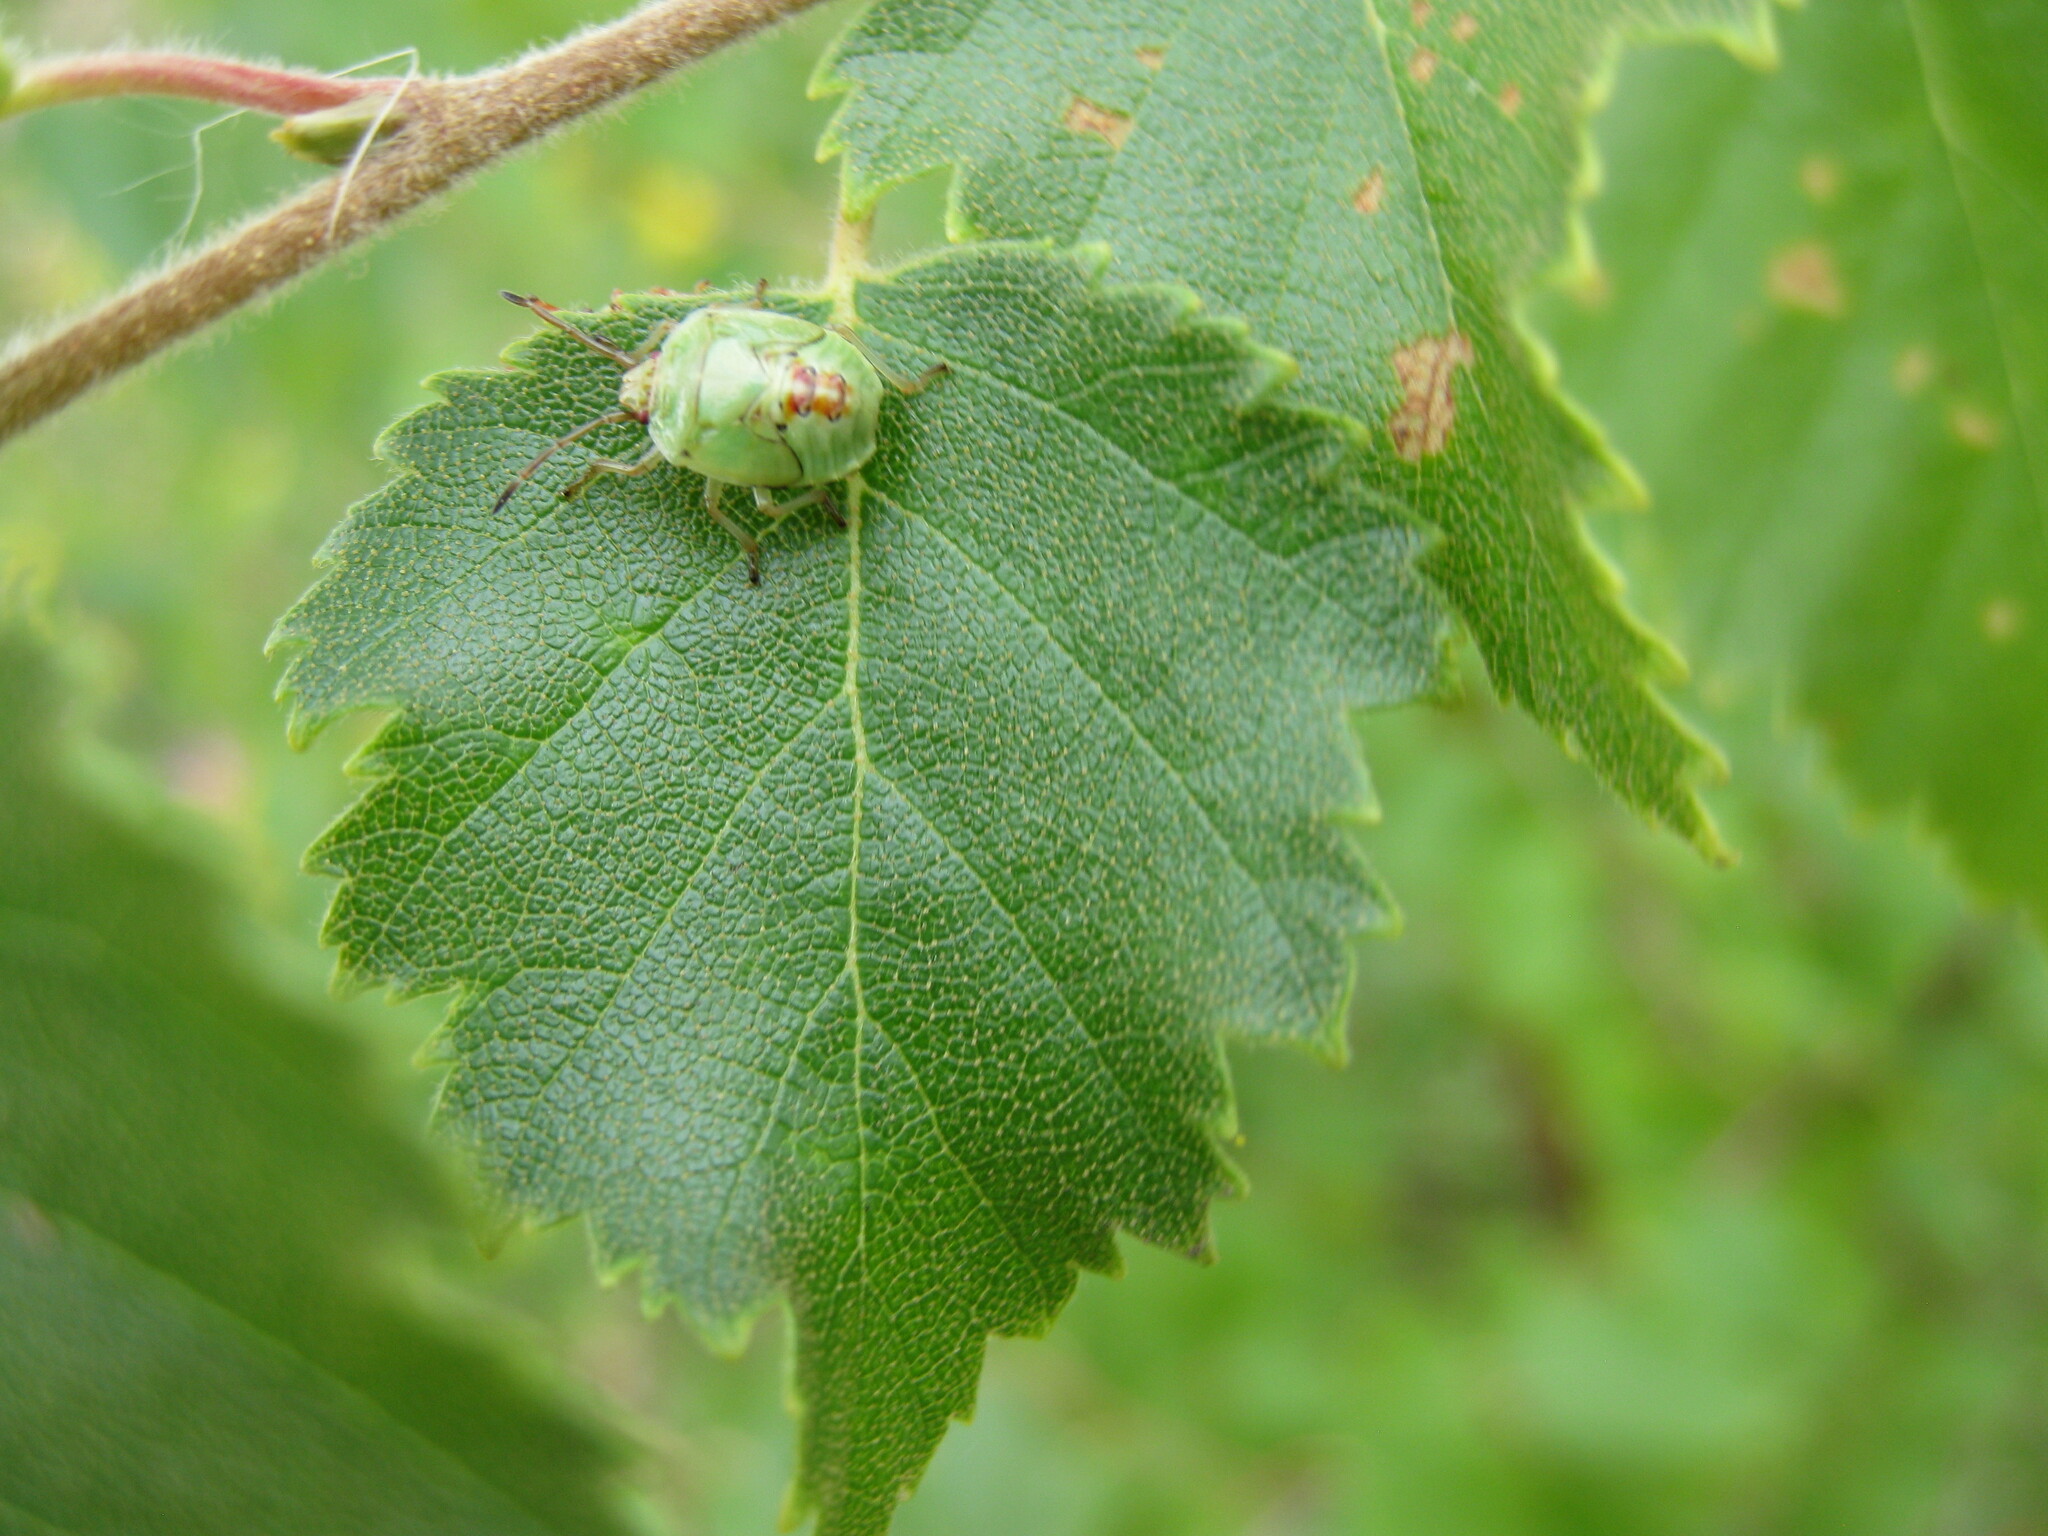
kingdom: Animalia
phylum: Arthropoda
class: Insecta
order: Hemiptera
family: Acanthosomatidae
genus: Elasmostethus
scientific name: Elasmostethus interstinctus
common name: Birch shieldbug
